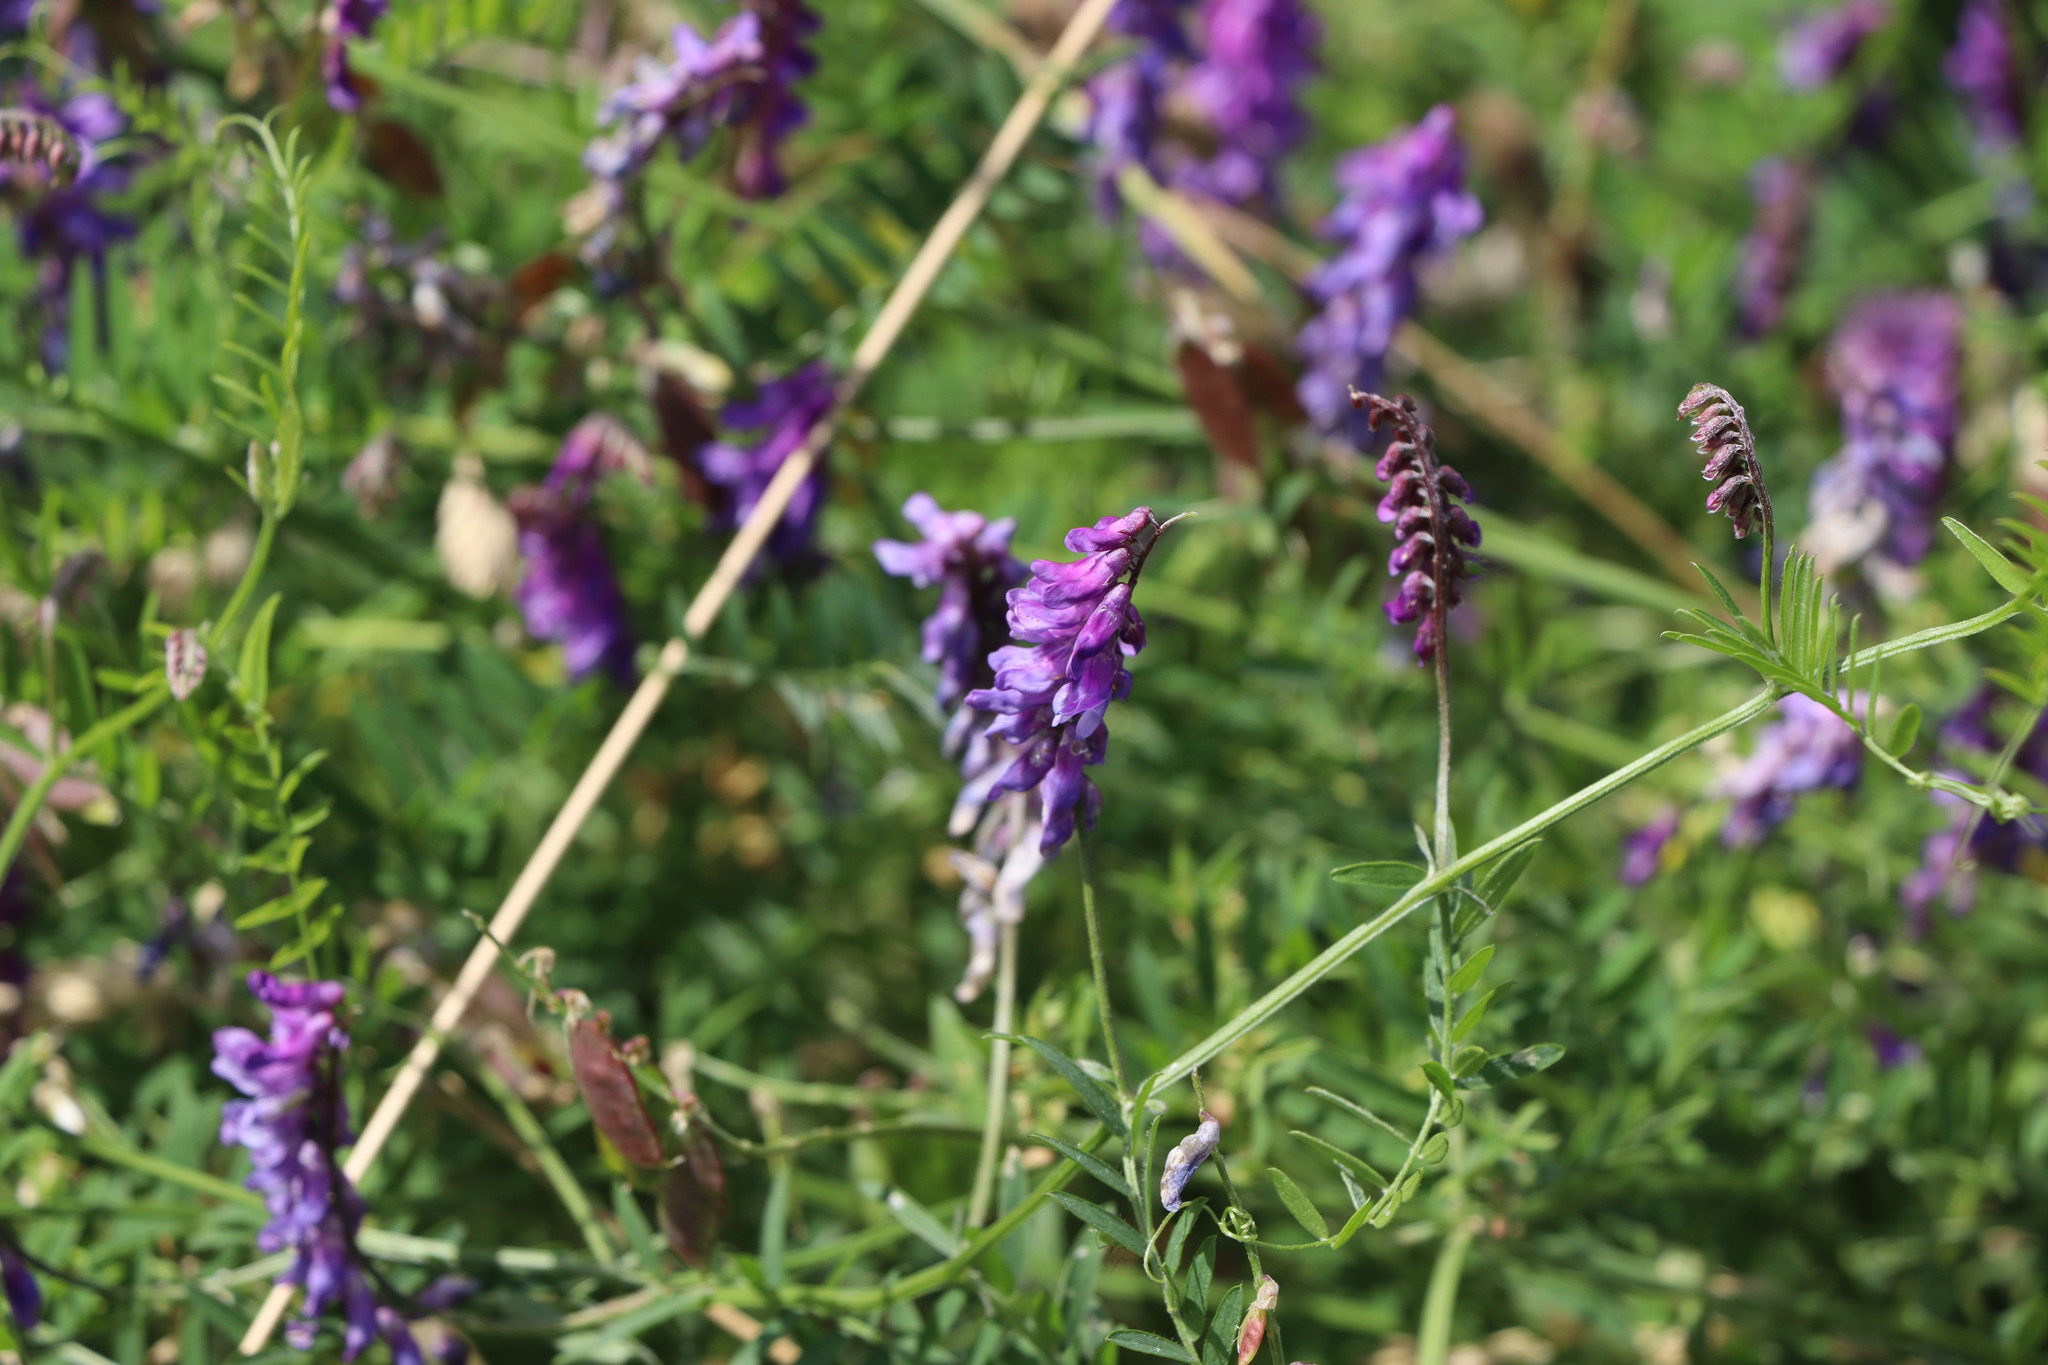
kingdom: Plantae
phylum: Tracheophyta
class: Magnoliopsida
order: Fabales
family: Fabaceae
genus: Vicia
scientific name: Vicia cracca
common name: Bird vetch
